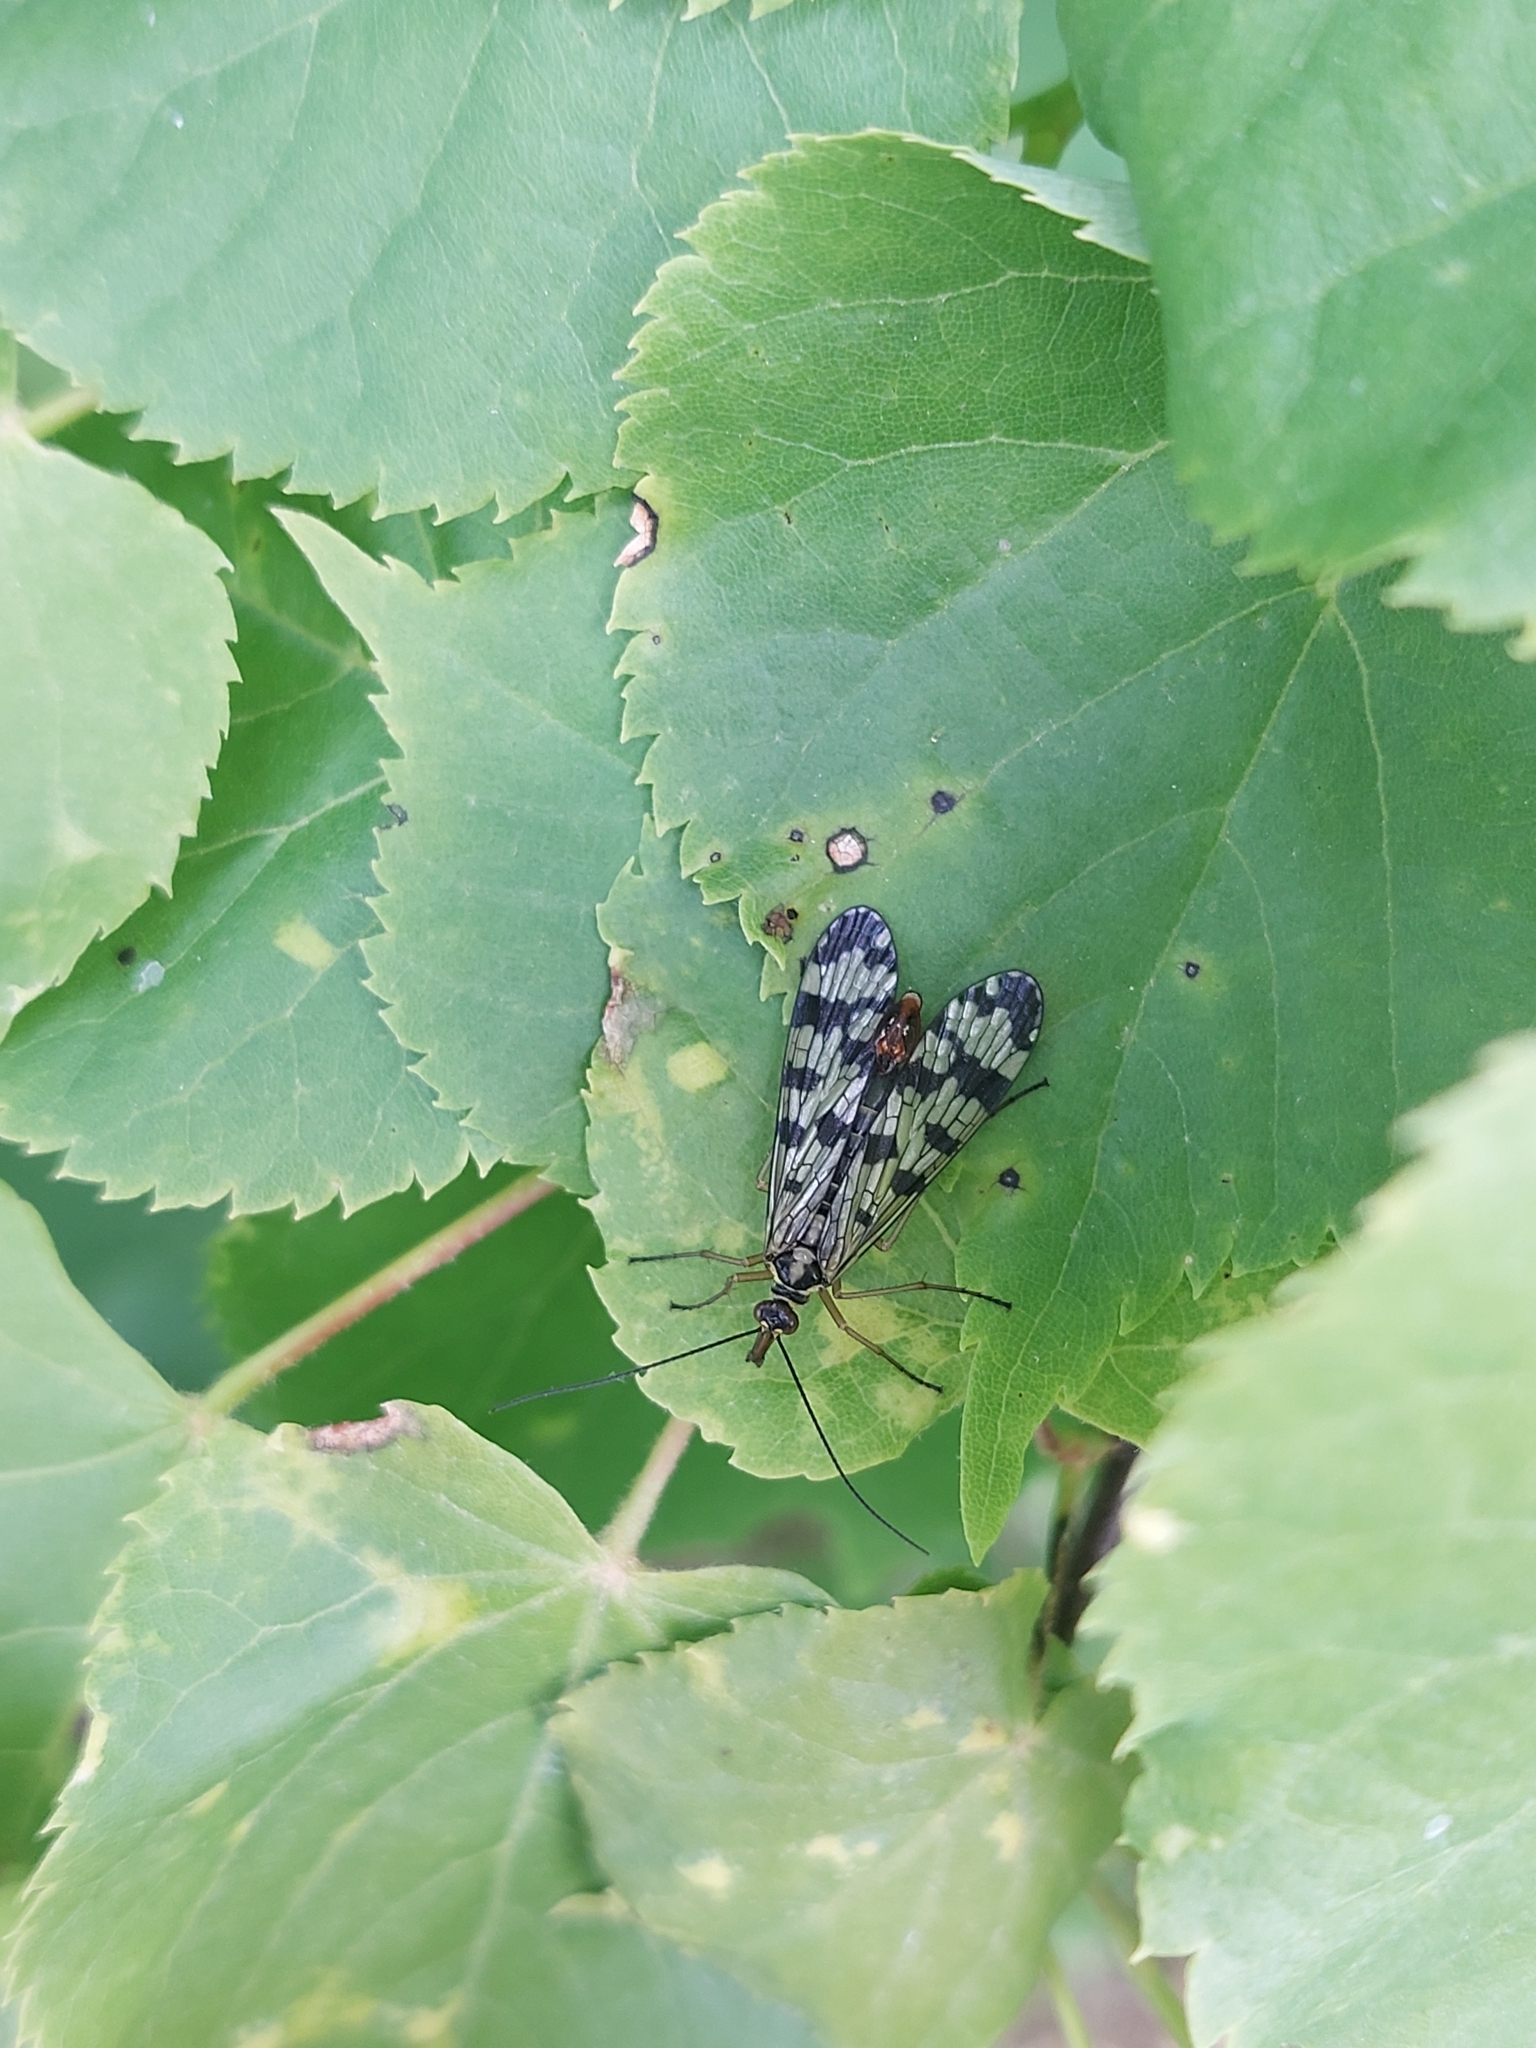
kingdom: Animalia
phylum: Arthropoda
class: Insecta
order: Mecoptera
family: Panorpidae
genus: Panorpa
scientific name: Panorpa communis
